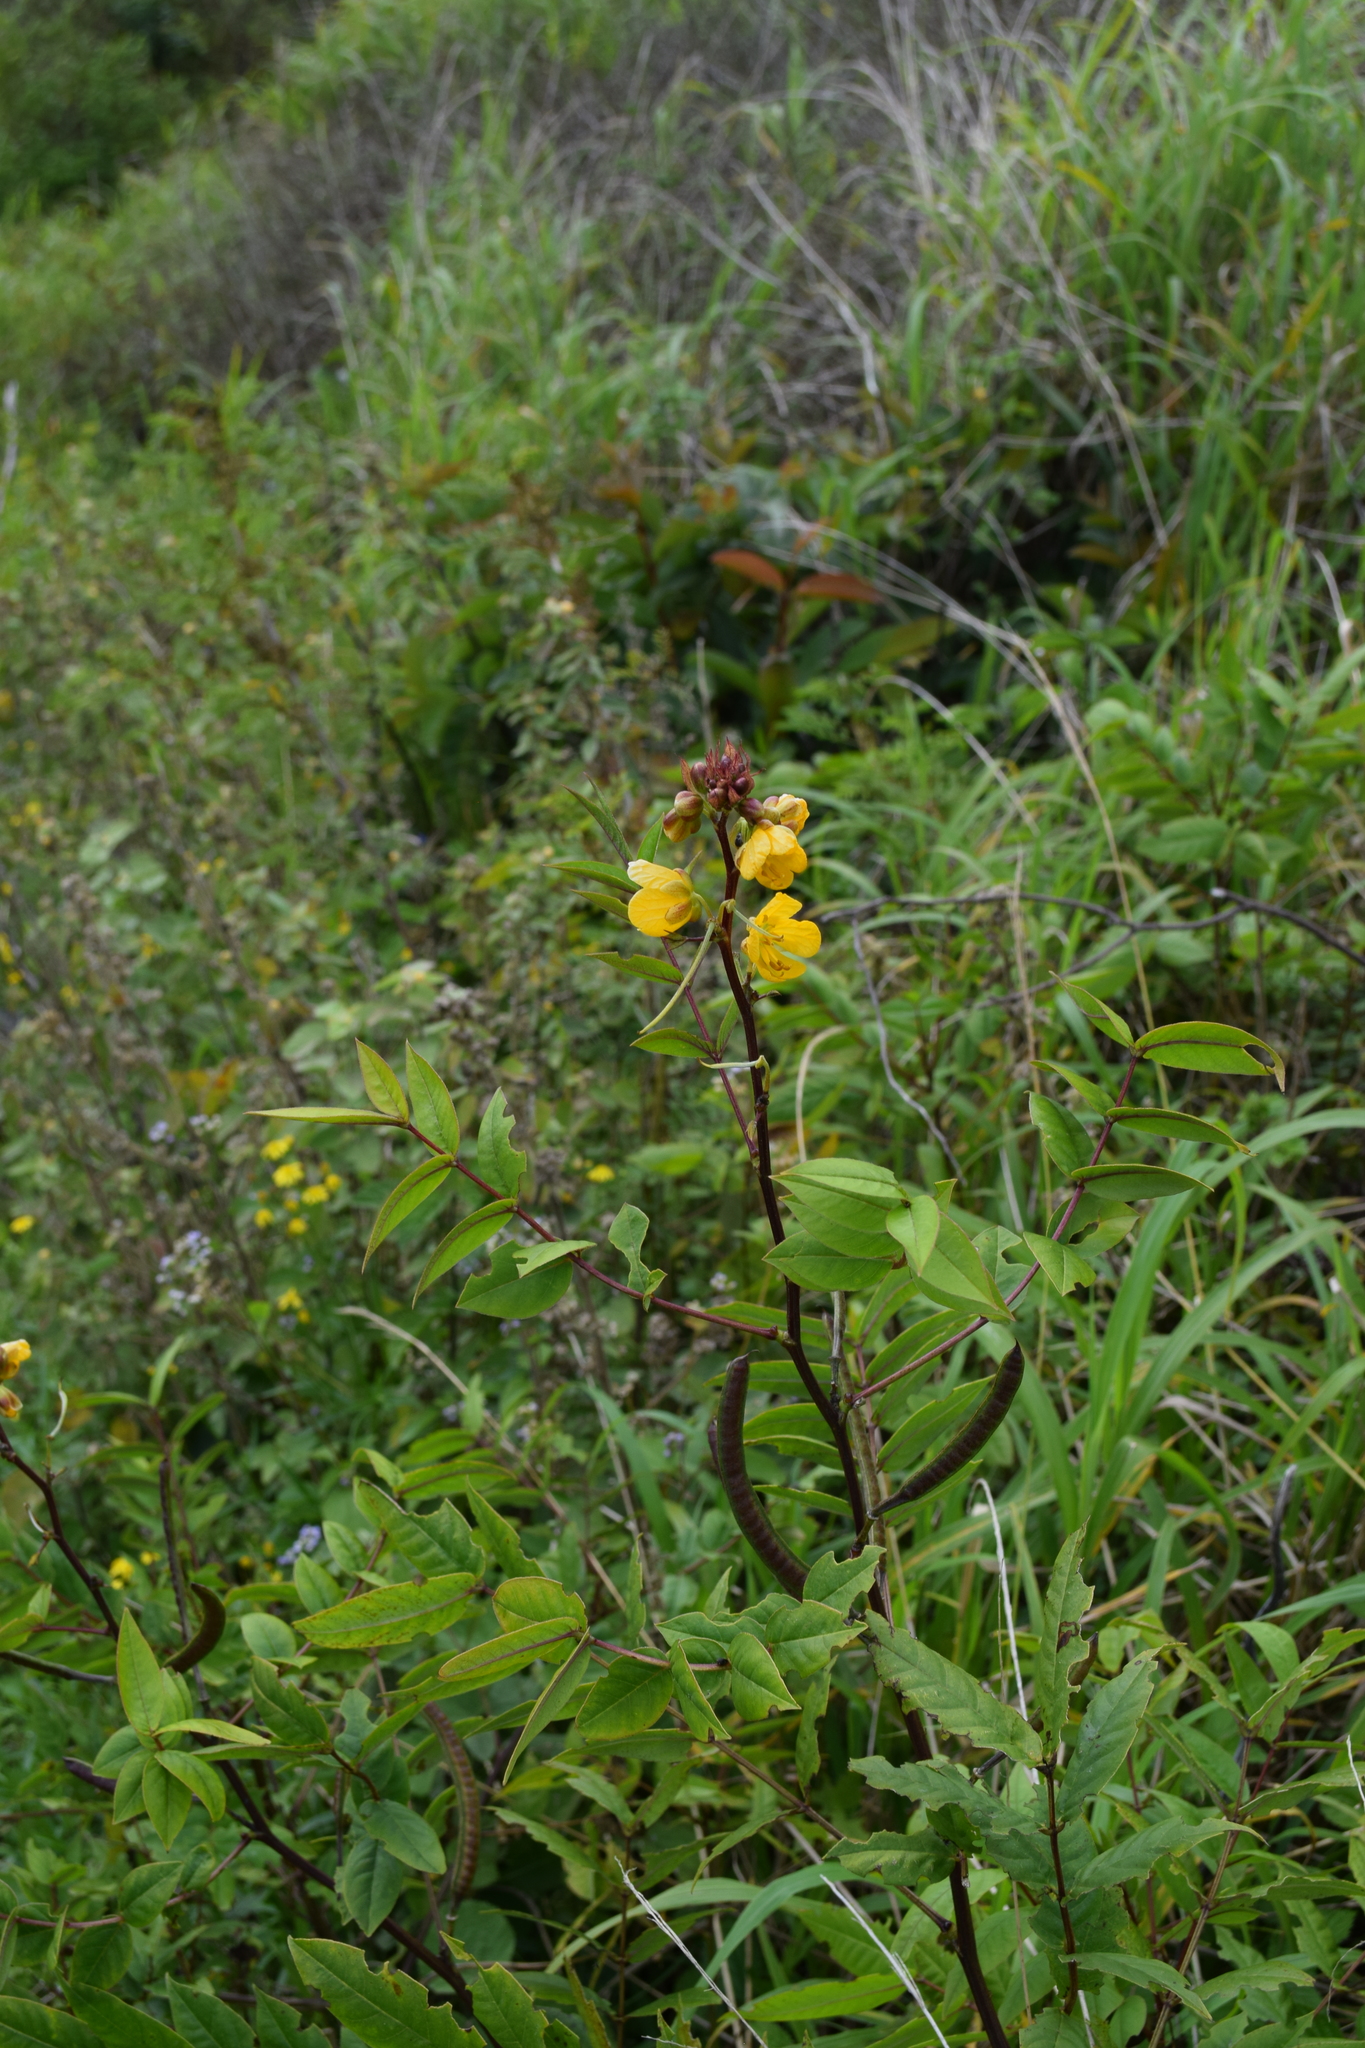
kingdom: Plantae
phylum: Tracheophyta
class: Magnoliopsida
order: Fabales
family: Fabaceae
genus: Senna
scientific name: Senna occidentalis
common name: Septicweed
